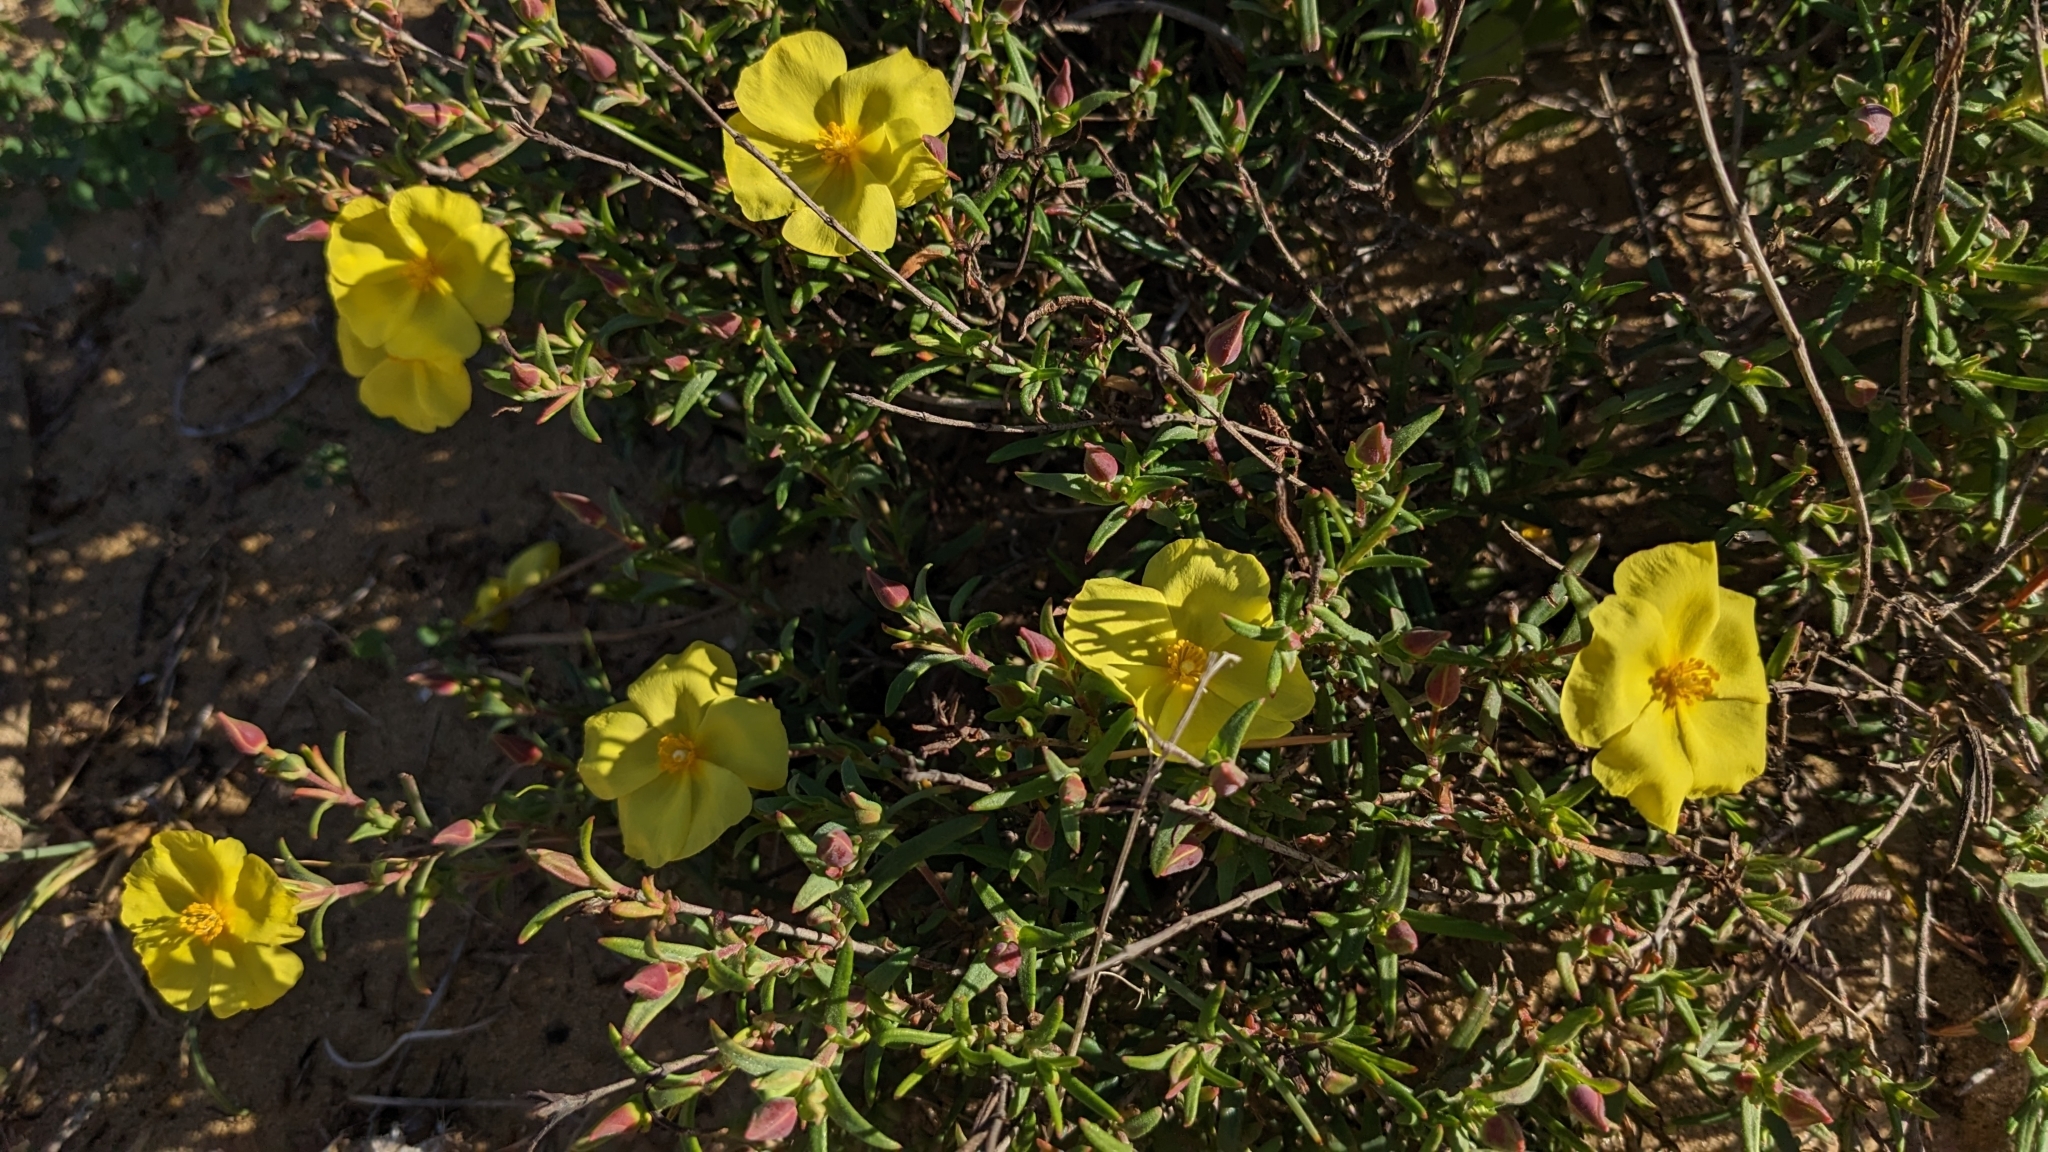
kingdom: Plantae
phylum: Tracheophyta
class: Magnoliopsida
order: Malvales
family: Cistaceae
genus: Halimium
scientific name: Halimium calycinum
